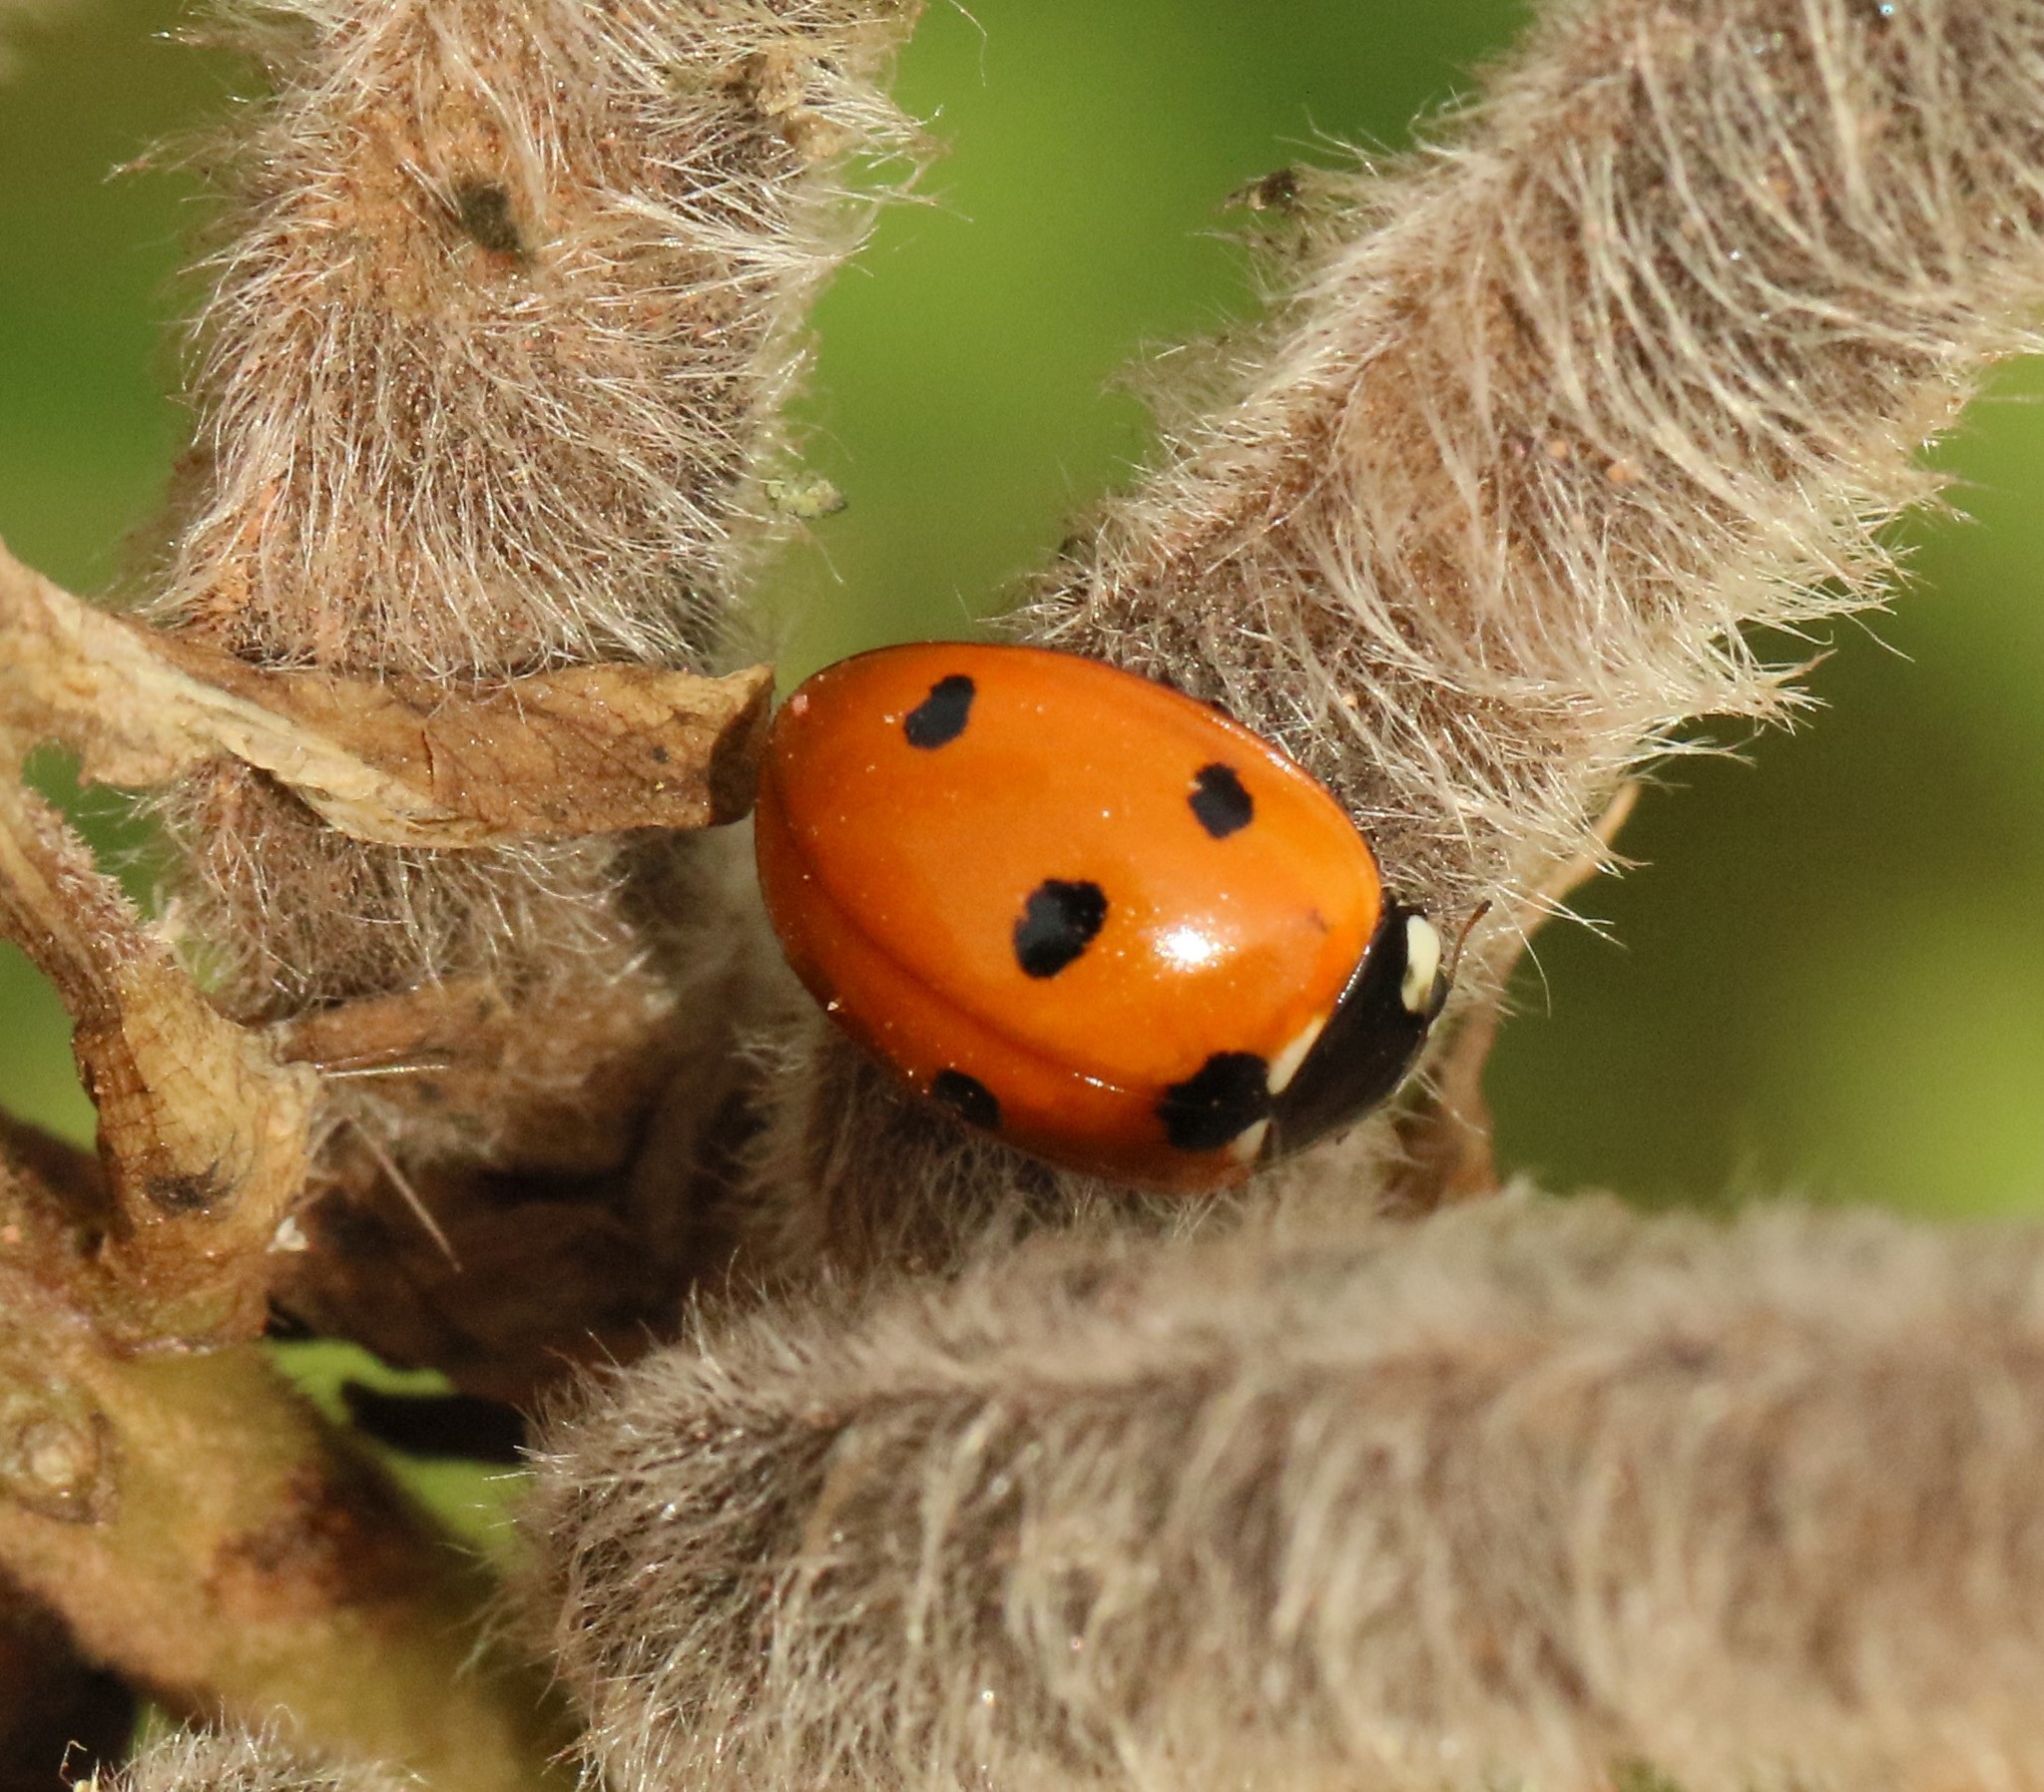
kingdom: Animalia
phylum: Arthropoda
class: Insecta
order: Coleoptera
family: Coccinellidae
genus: Coccinella
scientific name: Coccinella septempunctata
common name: Sevenspotted lady beetle
